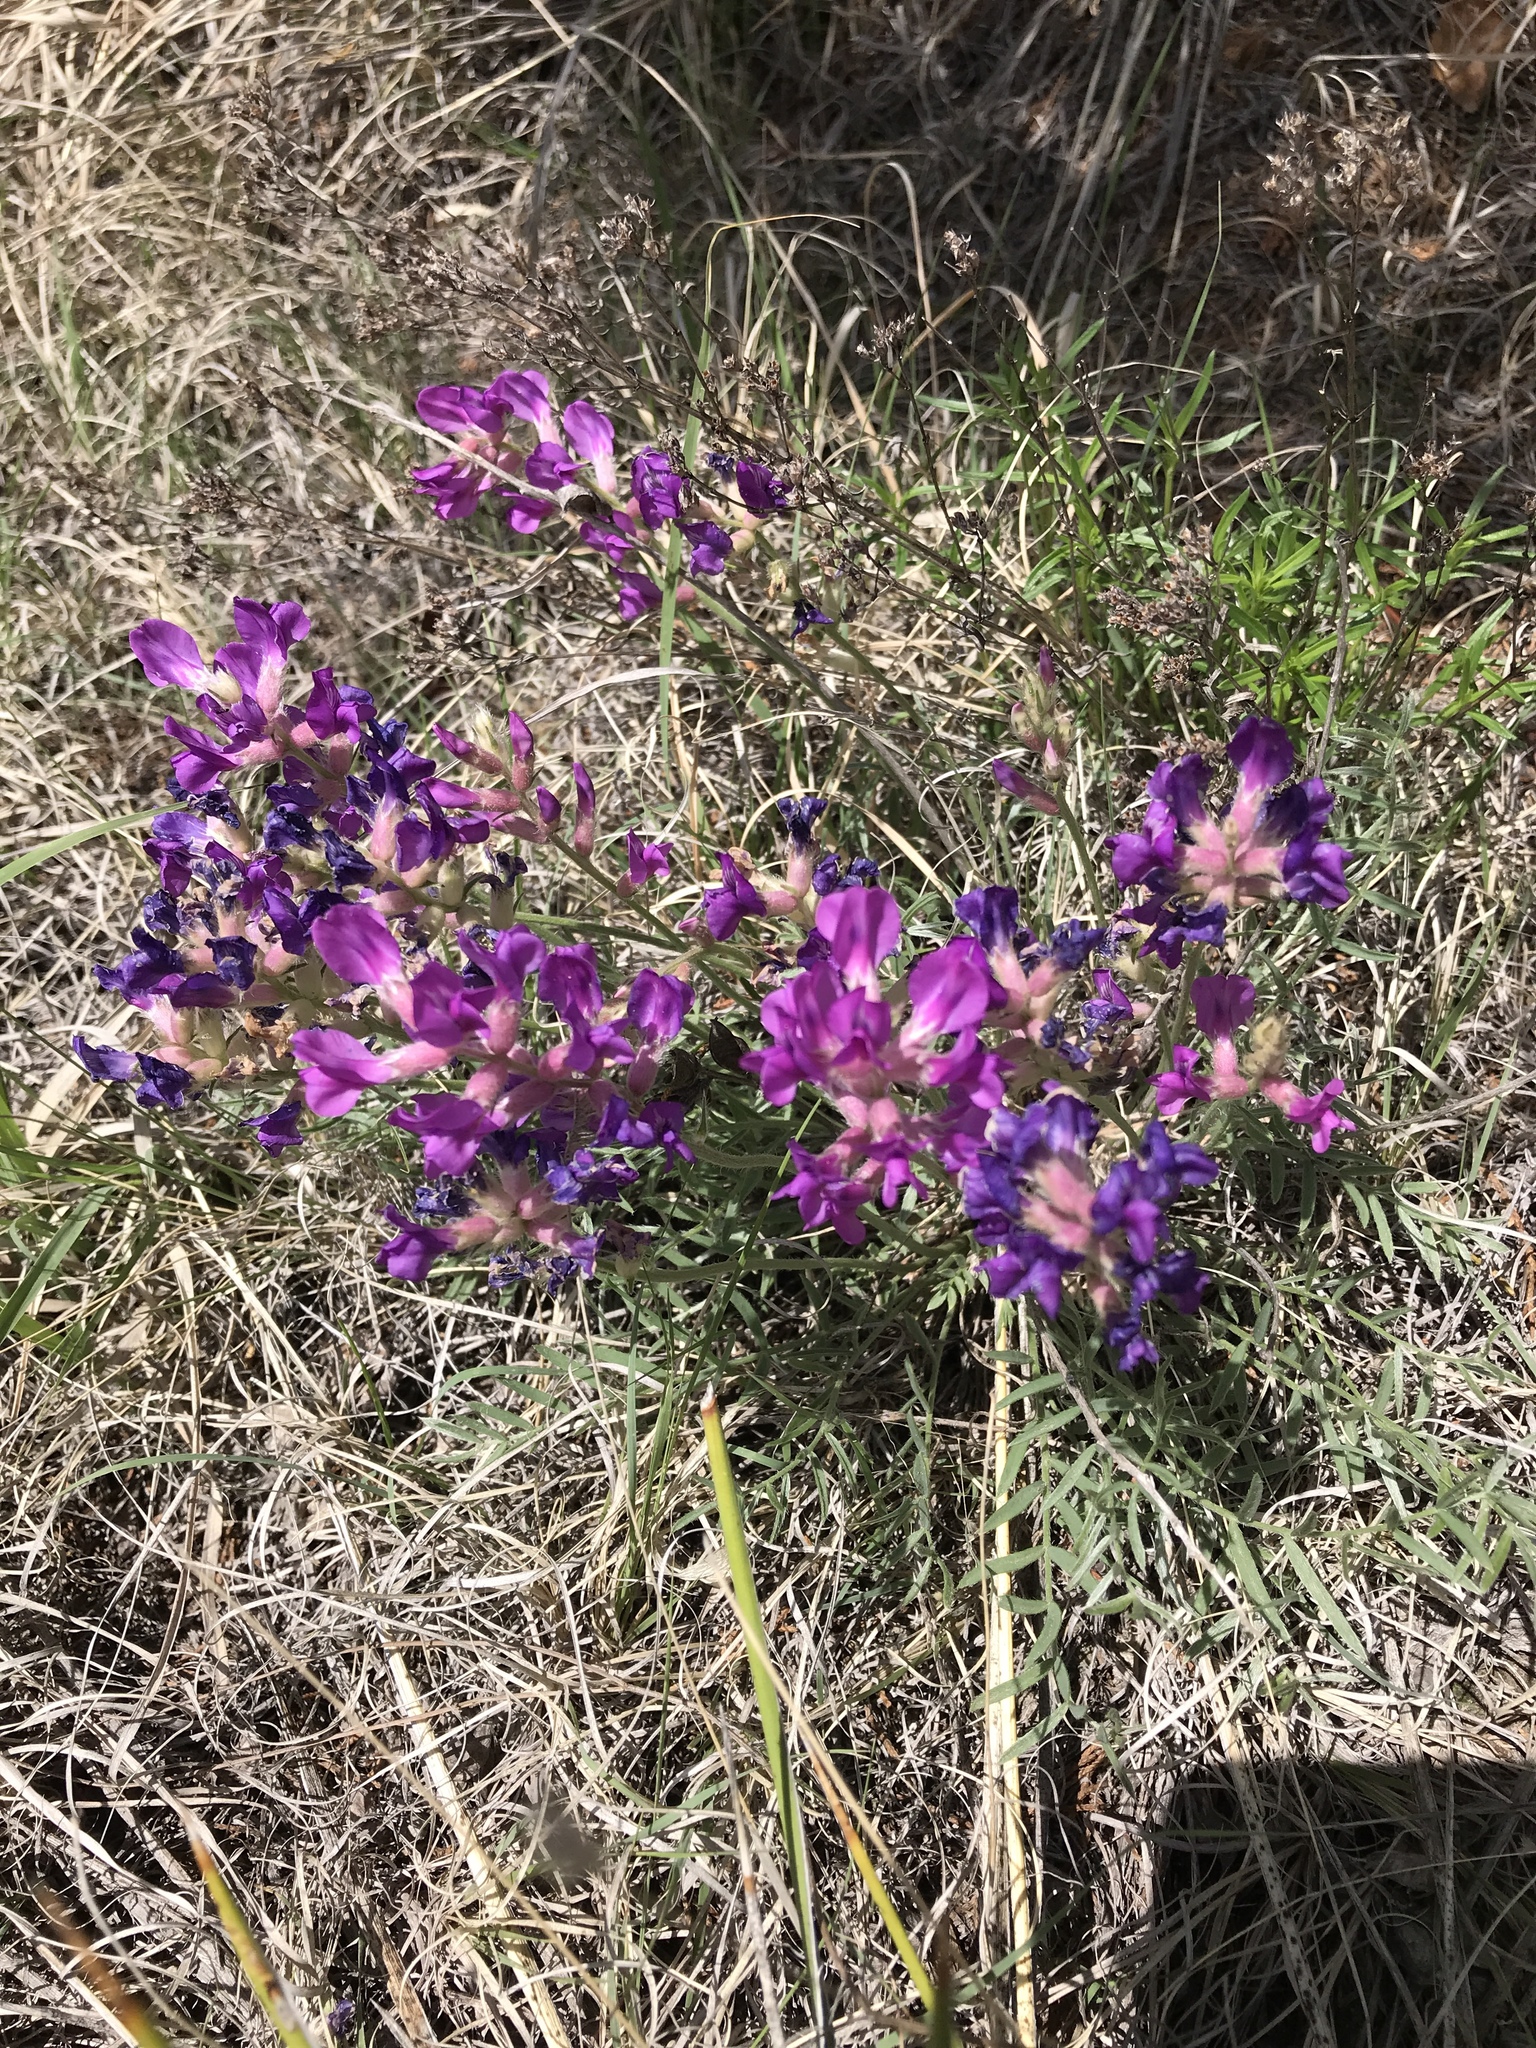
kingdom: Plantae
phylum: Tracheophyta
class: Magnoliopsida
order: Fabales
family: Fabaceae
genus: Oxytropis
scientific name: Oxytropis lambertii
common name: Purple locoweed
